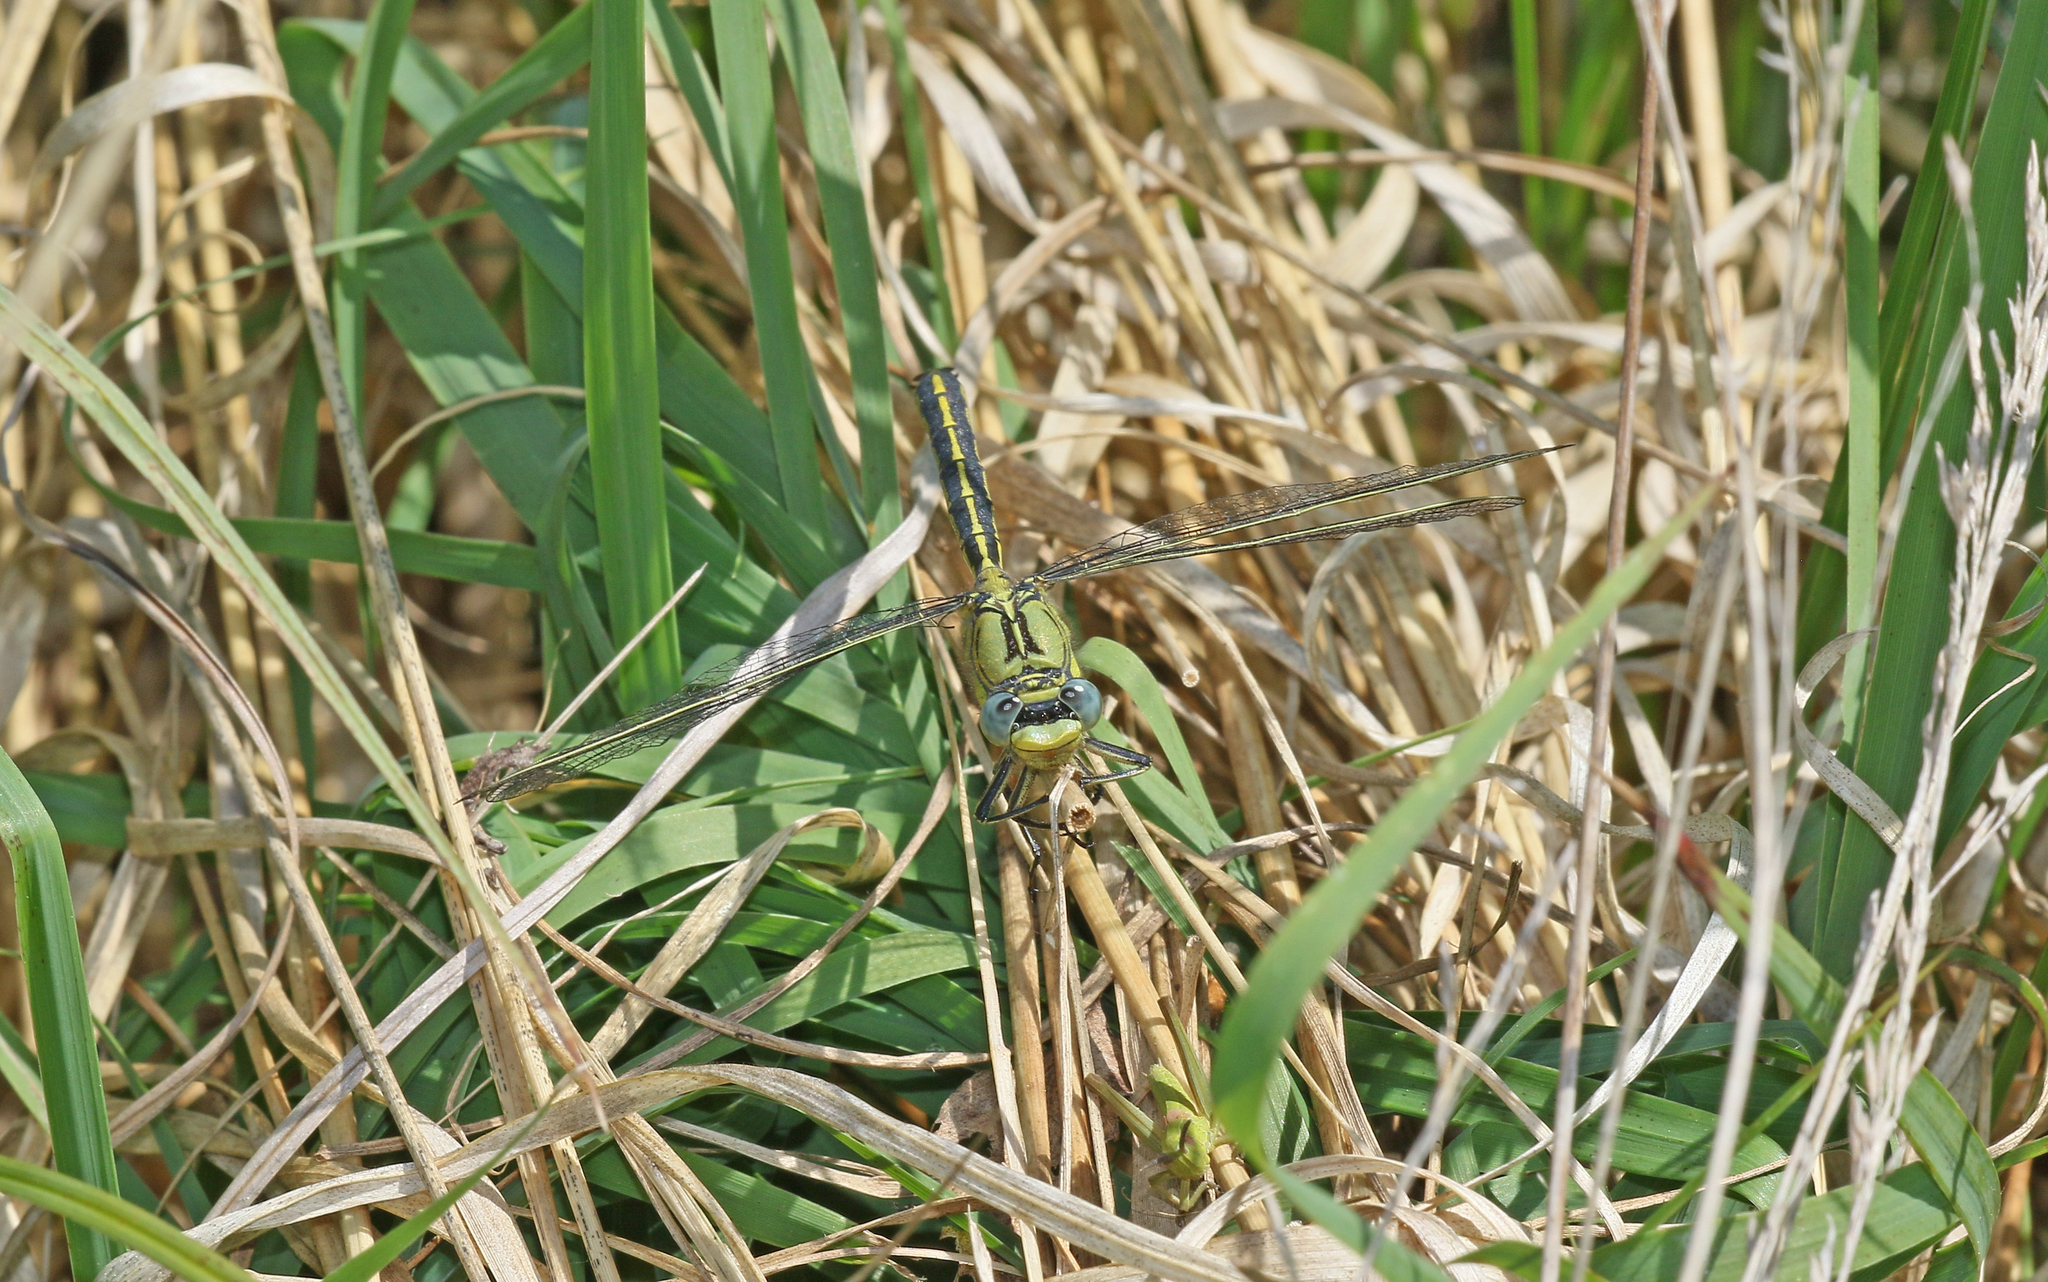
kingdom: Animalia
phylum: Arthropoda
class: Insecta
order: Odonata
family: Gomphidae
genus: Gomphus
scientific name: Gomphus pulchellus
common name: Western clubtail
